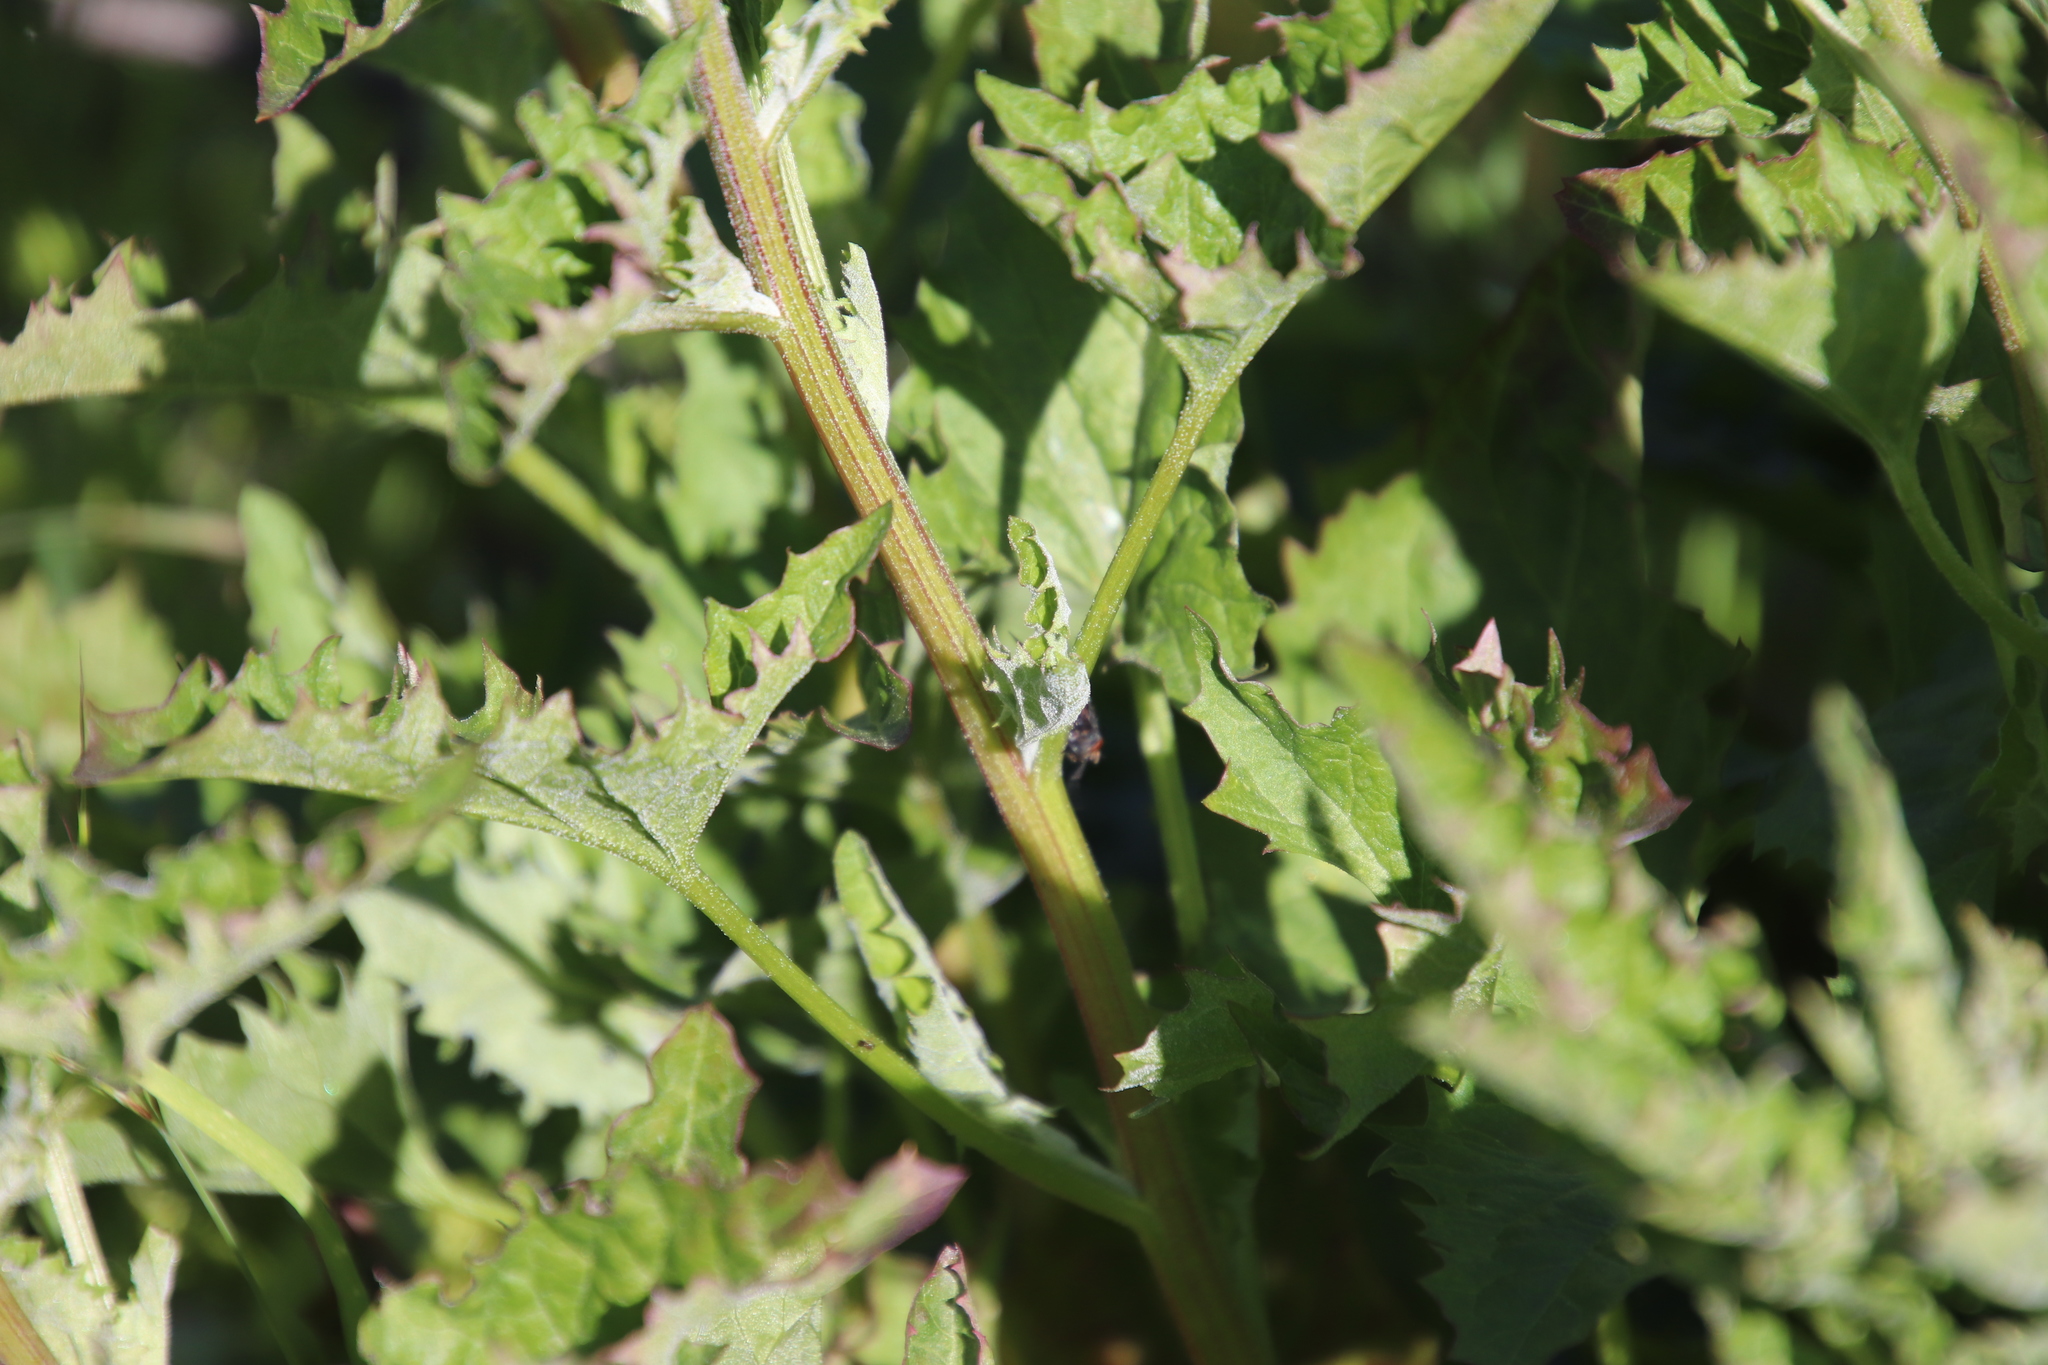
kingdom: Plantae
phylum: Tracheophyta
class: Magnoliopsida
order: Caryophyllales
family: Amaranthaceae
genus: Blitum
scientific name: Blitum californicum
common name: California goosefoot
